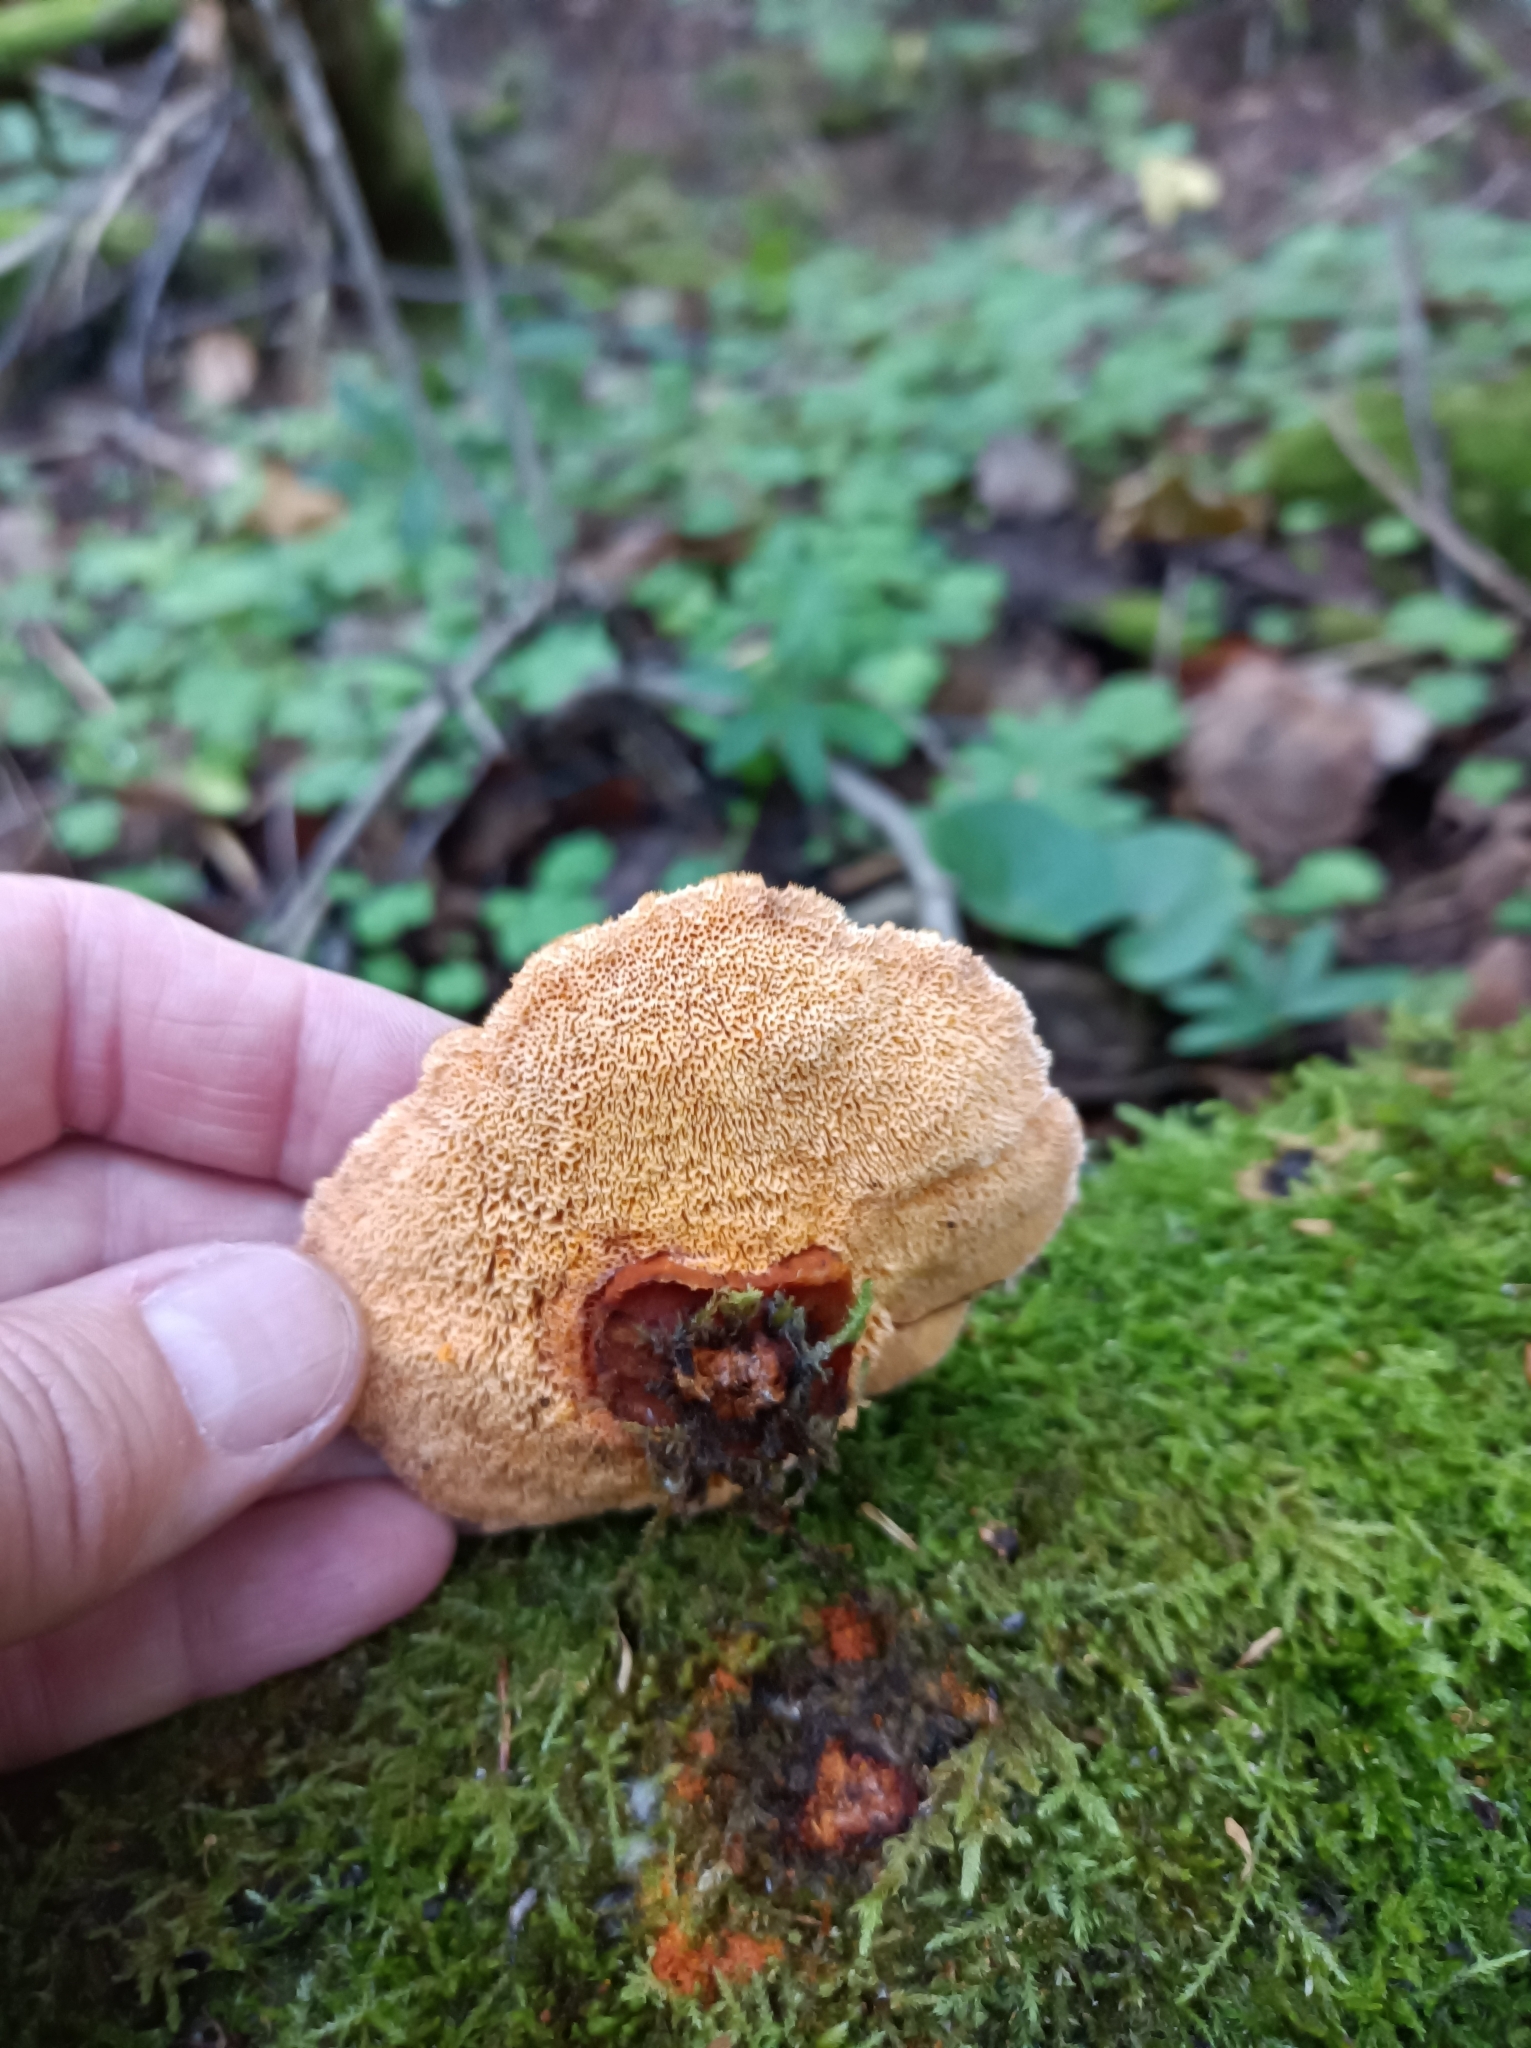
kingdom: Fungi
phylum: Basidiomycota
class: Agaricomycetes
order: Polyporales
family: Pycnoporellaceae
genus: Pycnoporellus
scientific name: Pycnoporellus fulgens
